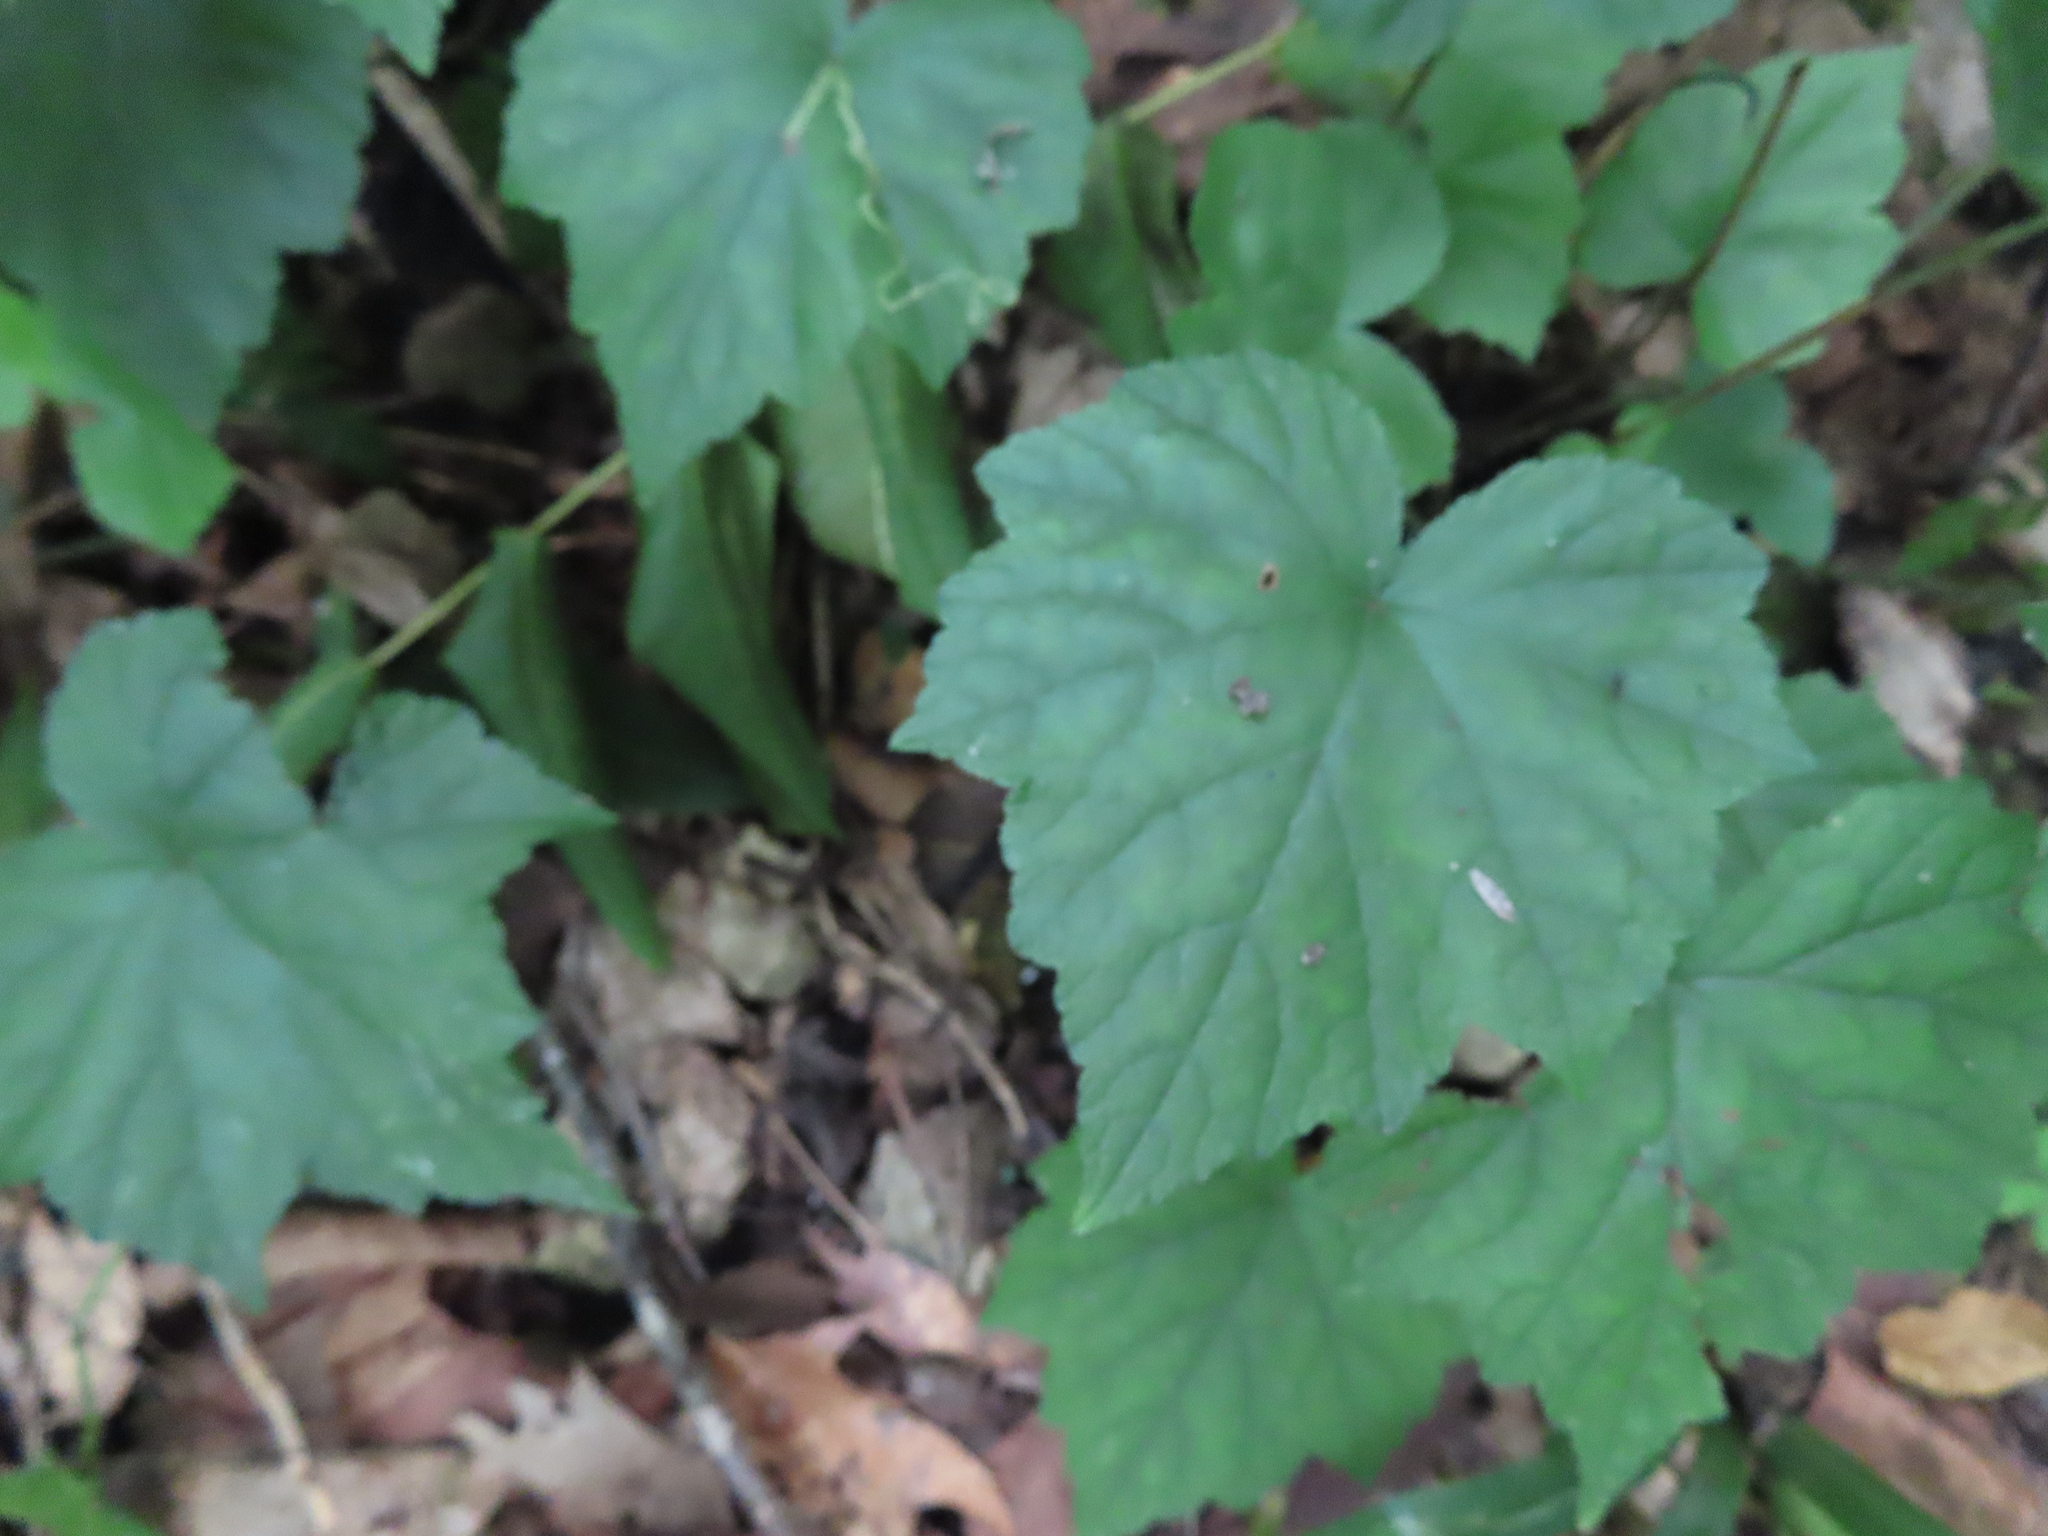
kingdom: Plantae
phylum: Tracheophyta
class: Magnoliopsida
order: Saxifragales
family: Saxifragaceae
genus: Mitella
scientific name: Mitella diphylla
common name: Coolwort
